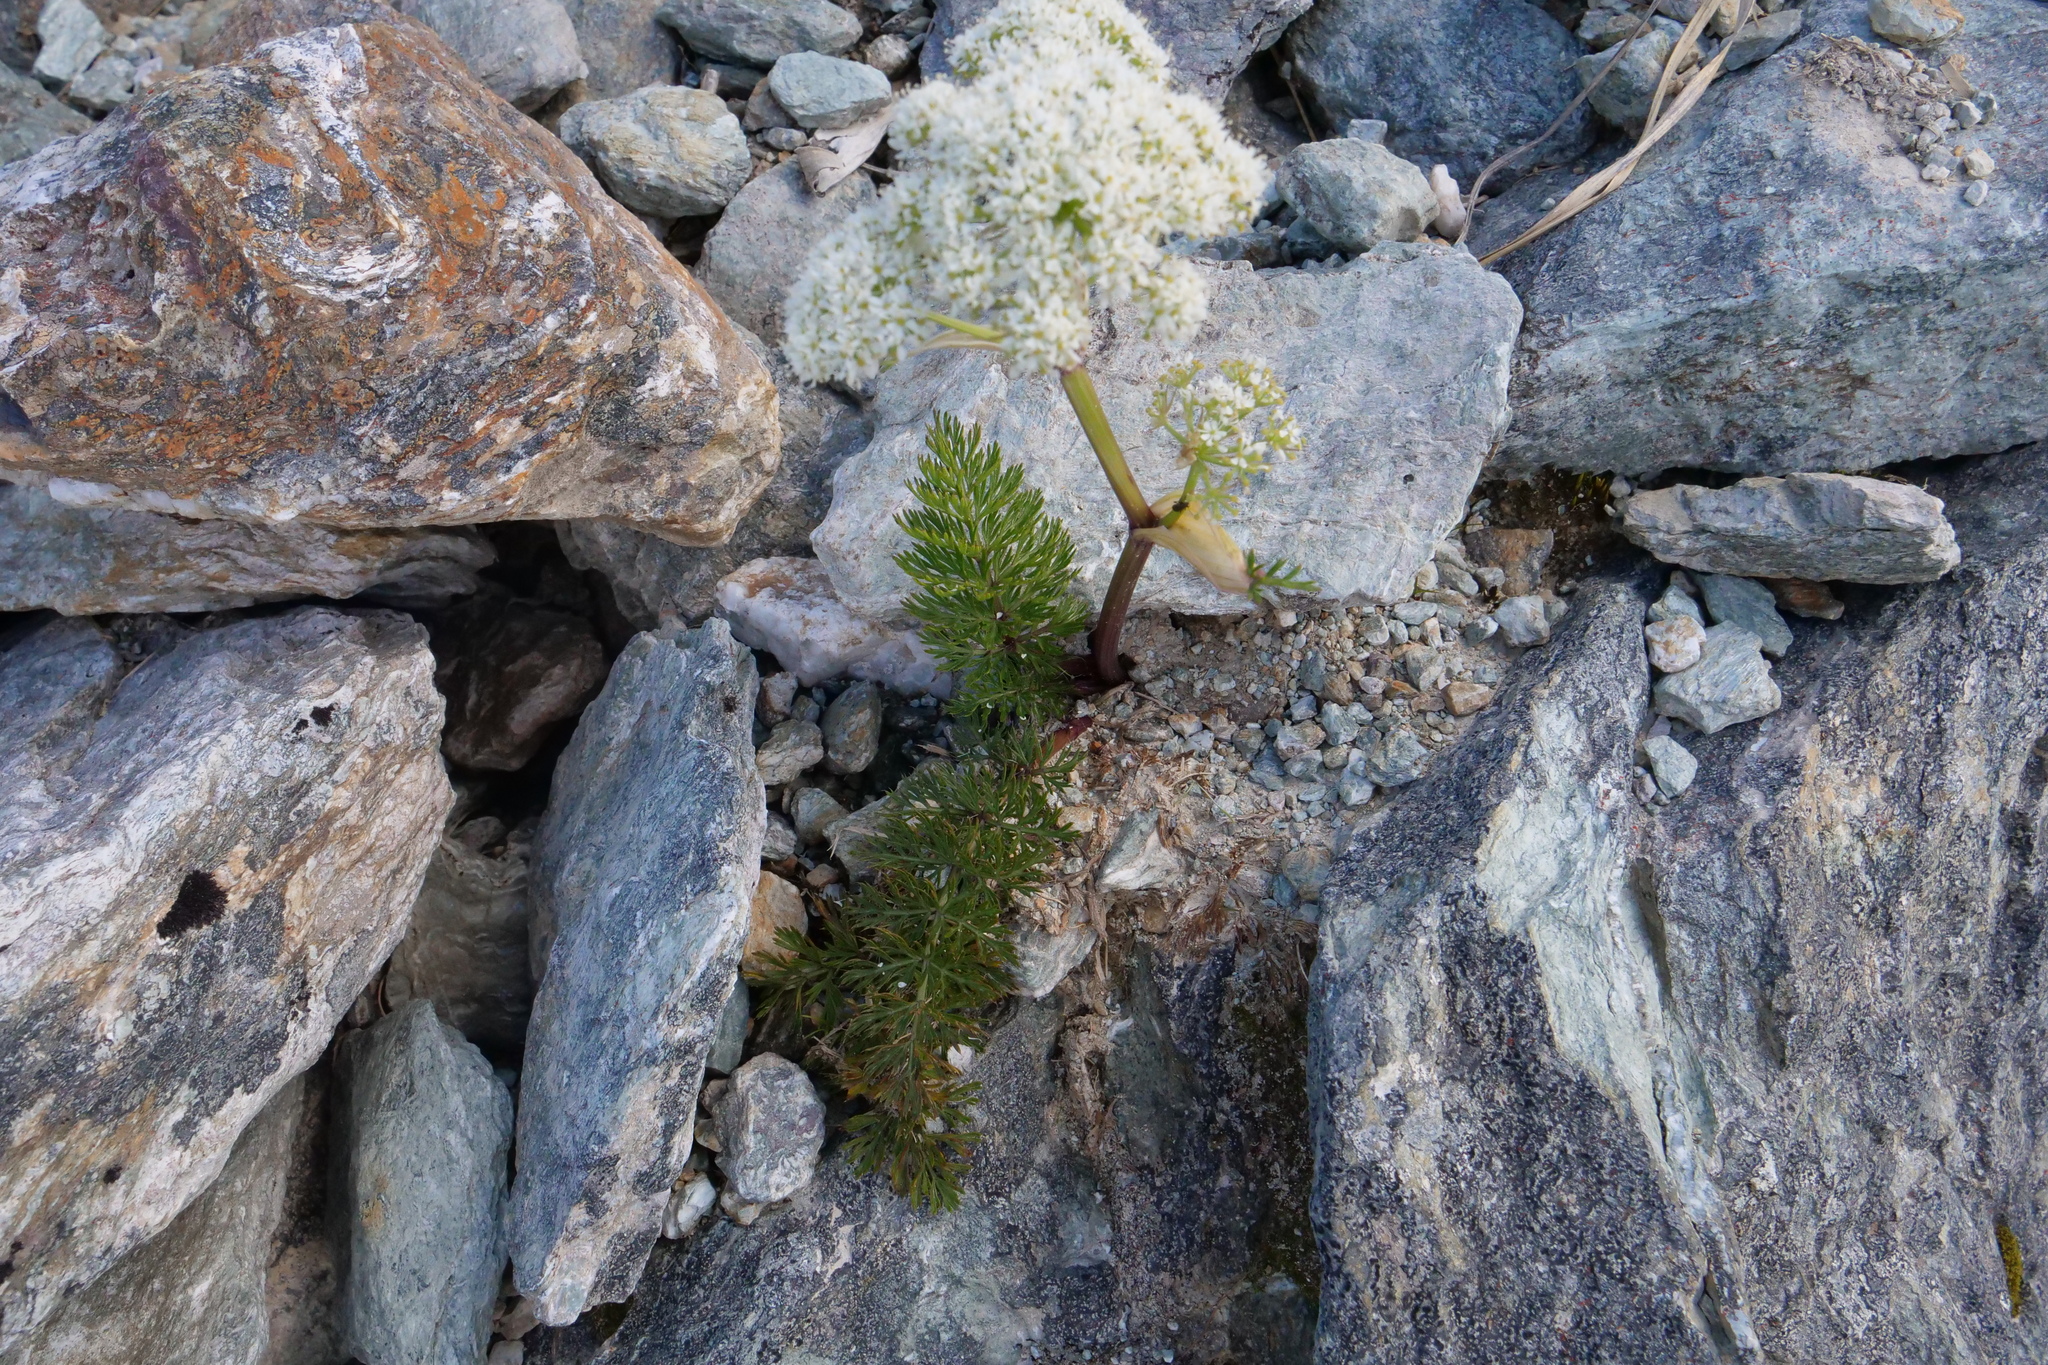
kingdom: Plantae
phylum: Tracheophyta
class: Magnoliopsida
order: Apiales
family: Apiaceae
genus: Anisotome
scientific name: Anisotome haastii
